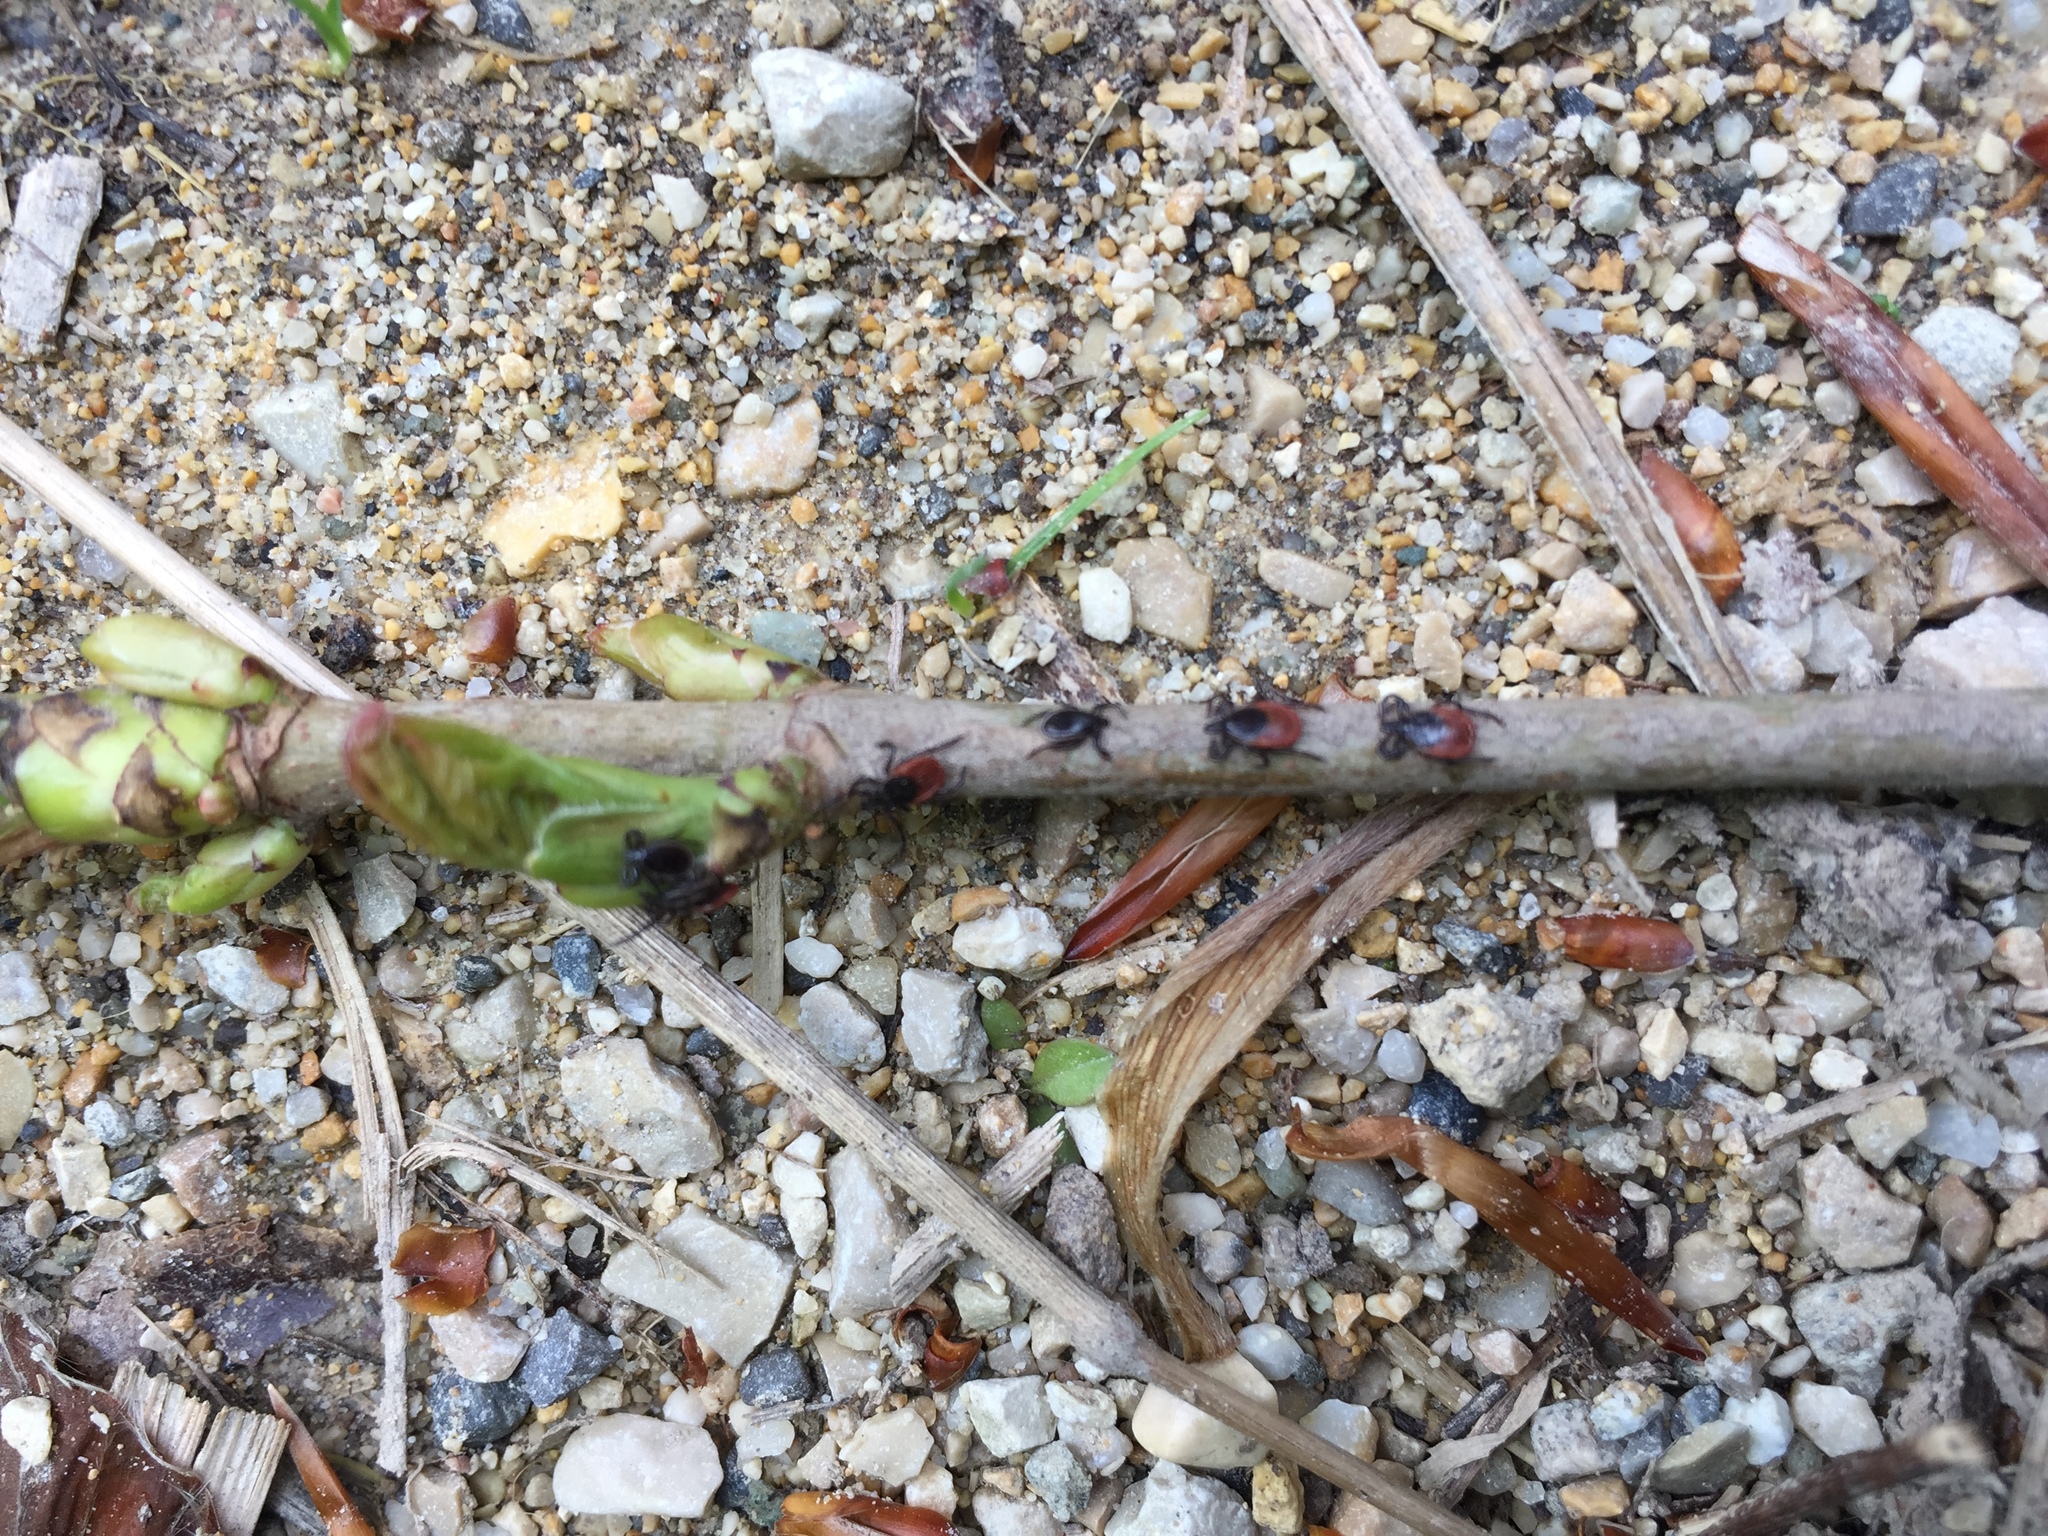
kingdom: Animalia
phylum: Arthropoda
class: Arachnida
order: Ixodida
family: Ixodidae
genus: Ixodes
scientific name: Ixodes ricinus
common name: Castor bean tick
